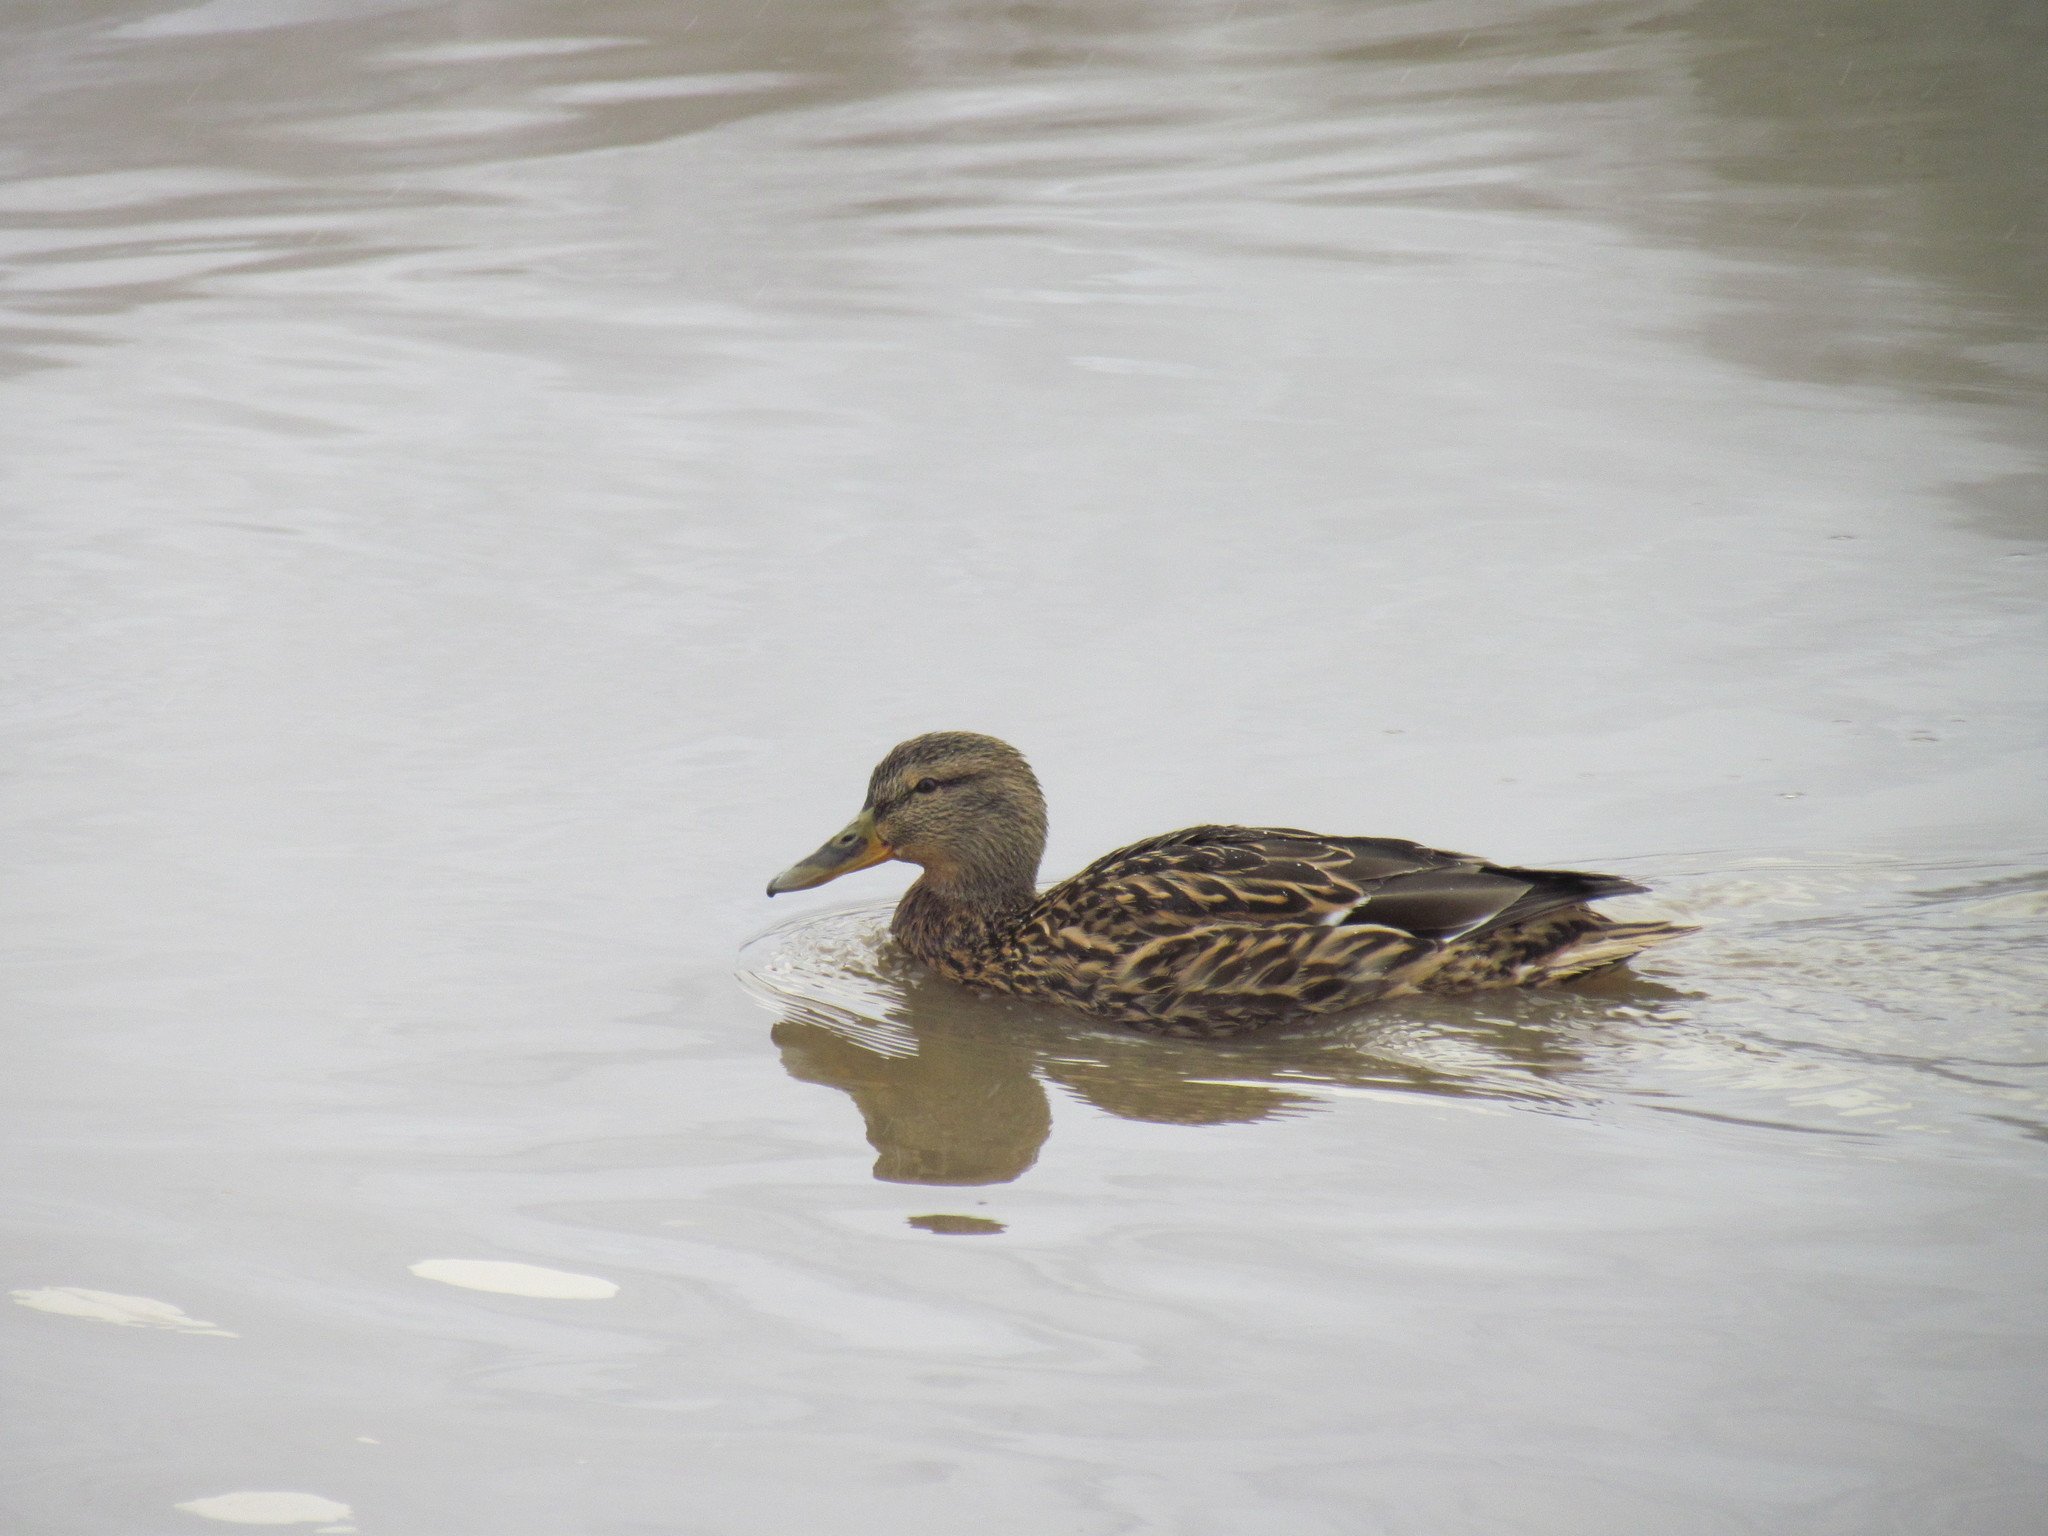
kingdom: Animalia
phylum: Chordata
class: Aves
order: Anseriformes
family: Anatidae
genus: Anas
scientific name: Anas platyrhynchos
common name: Mallard
